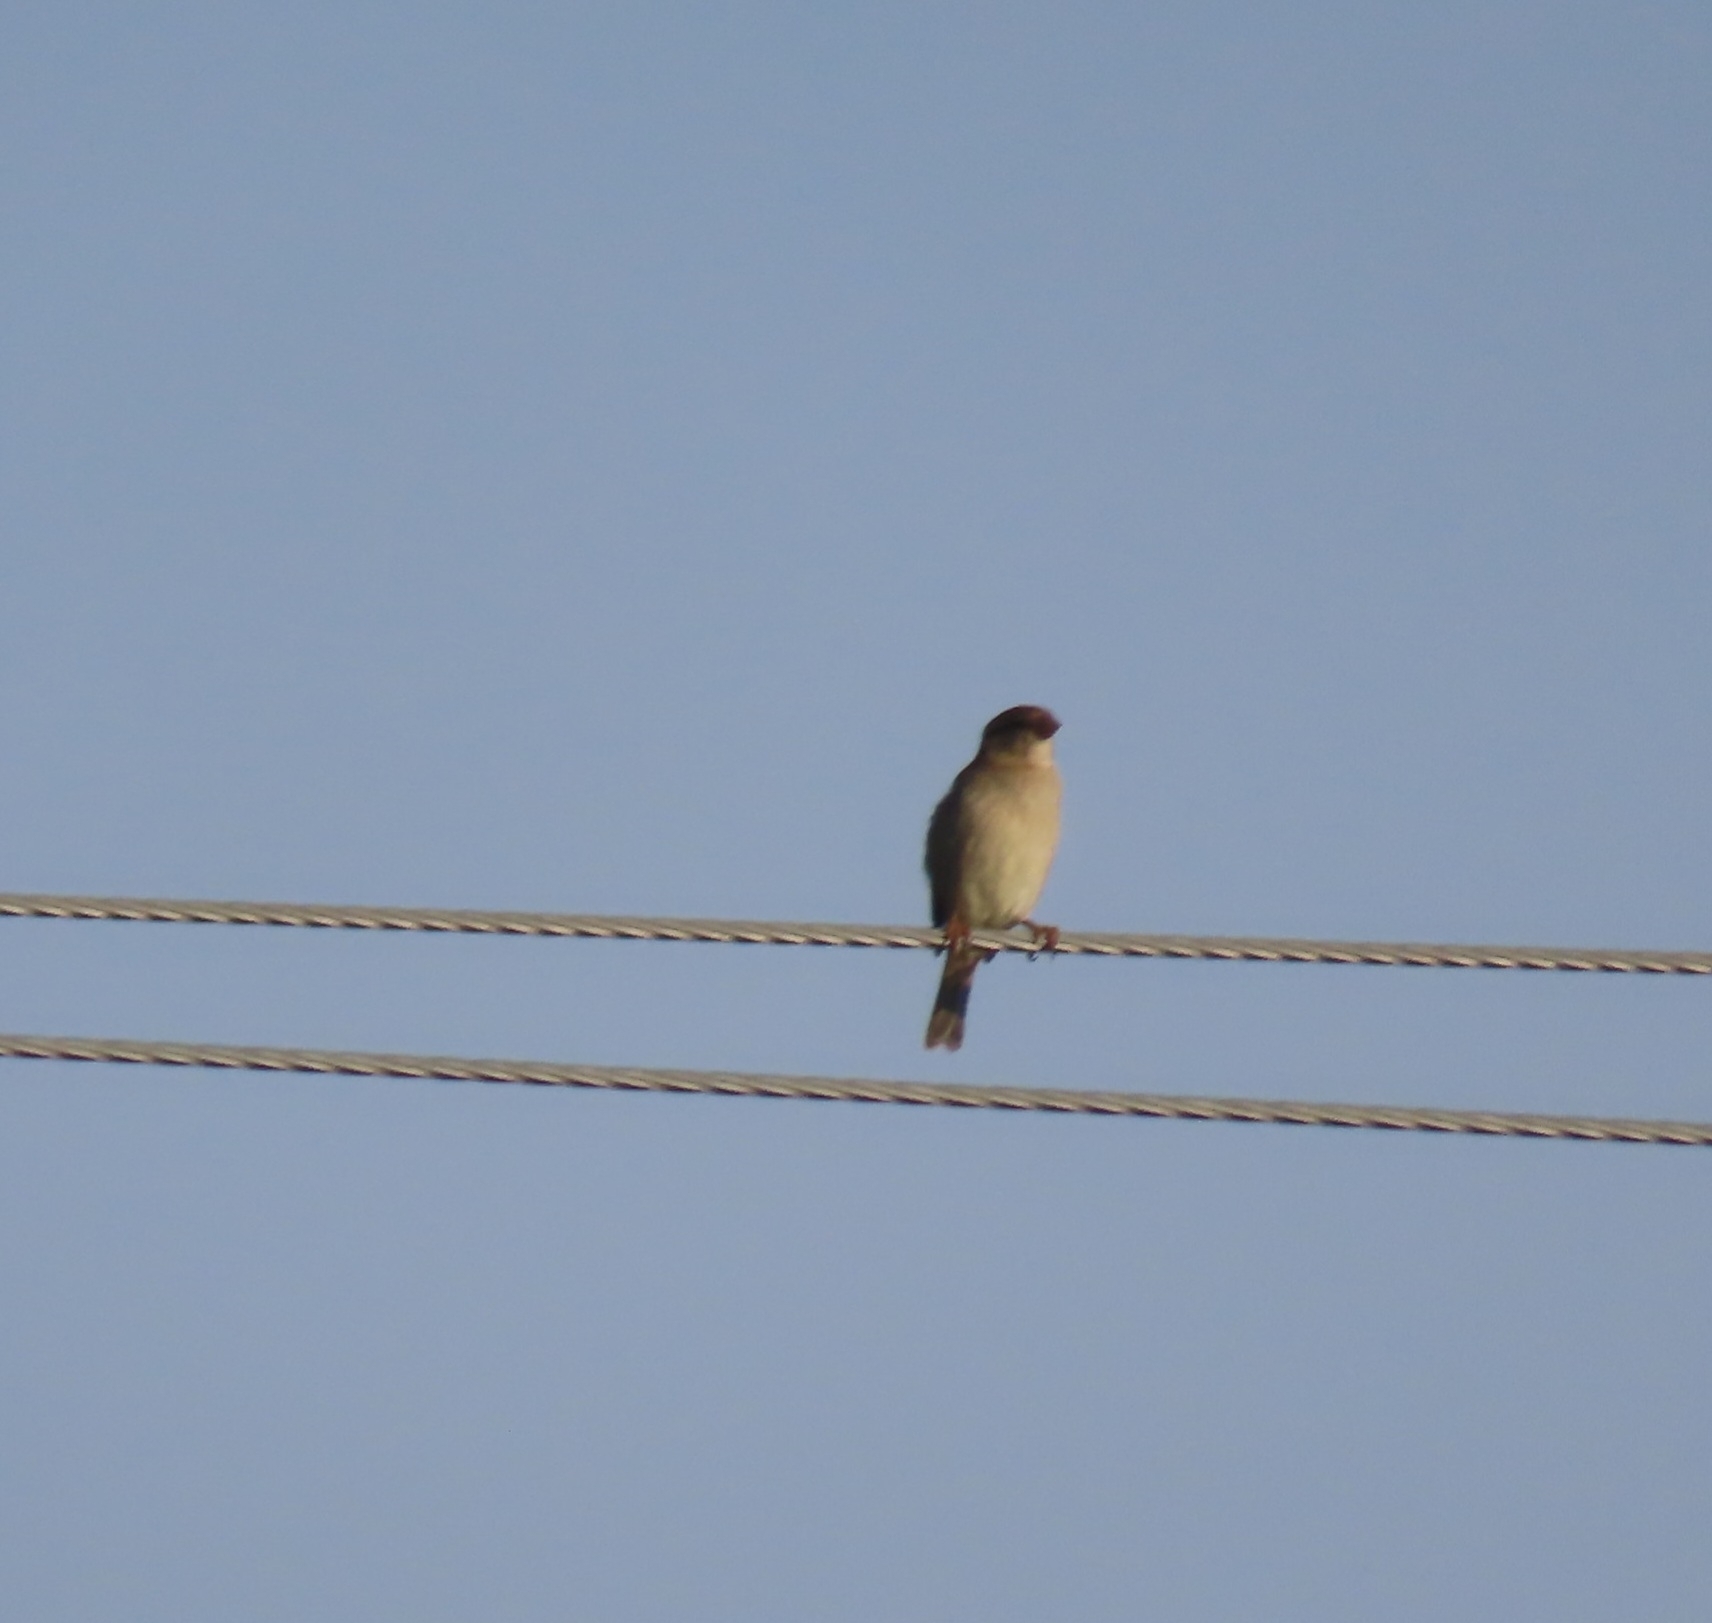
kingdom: Animalia
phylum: Chordata
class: Aves
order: Passeriformes
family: Passeridae
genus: Passer
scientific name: Passer domesticus
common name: House sparrow
